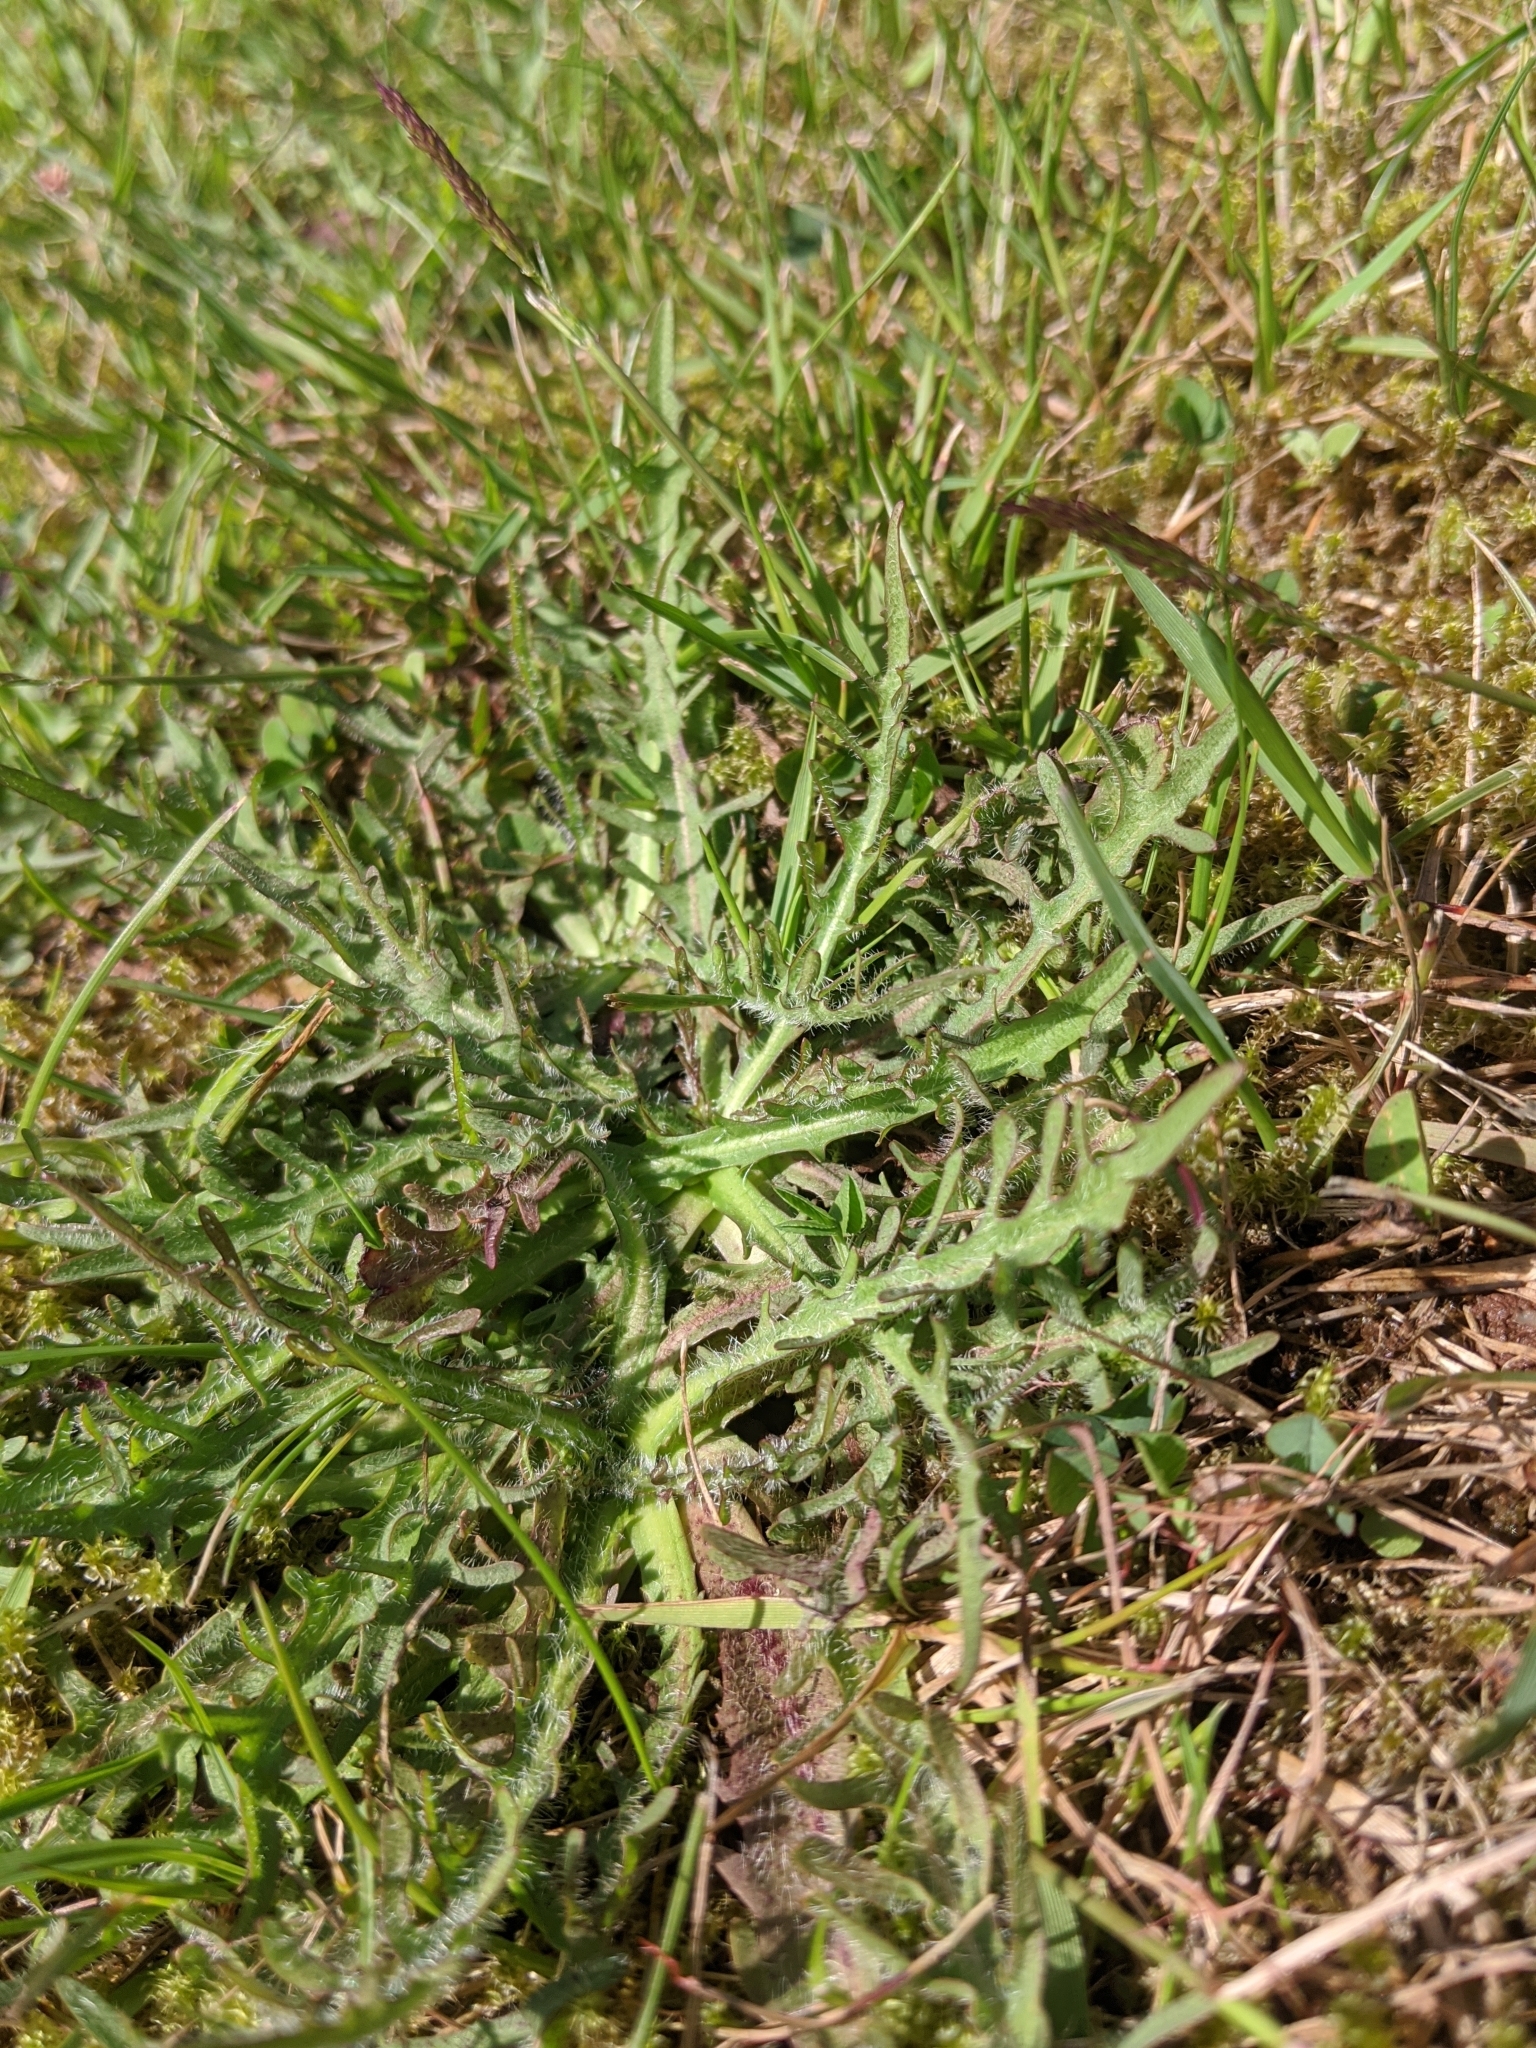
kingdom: Plantae
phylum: Tracheophyta
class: Magnoliopsida
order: Asterales
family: Asteraceae
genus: Scorzoneroides
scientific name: Scorzoneroides autumnalis
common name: Autumn hawkbit
